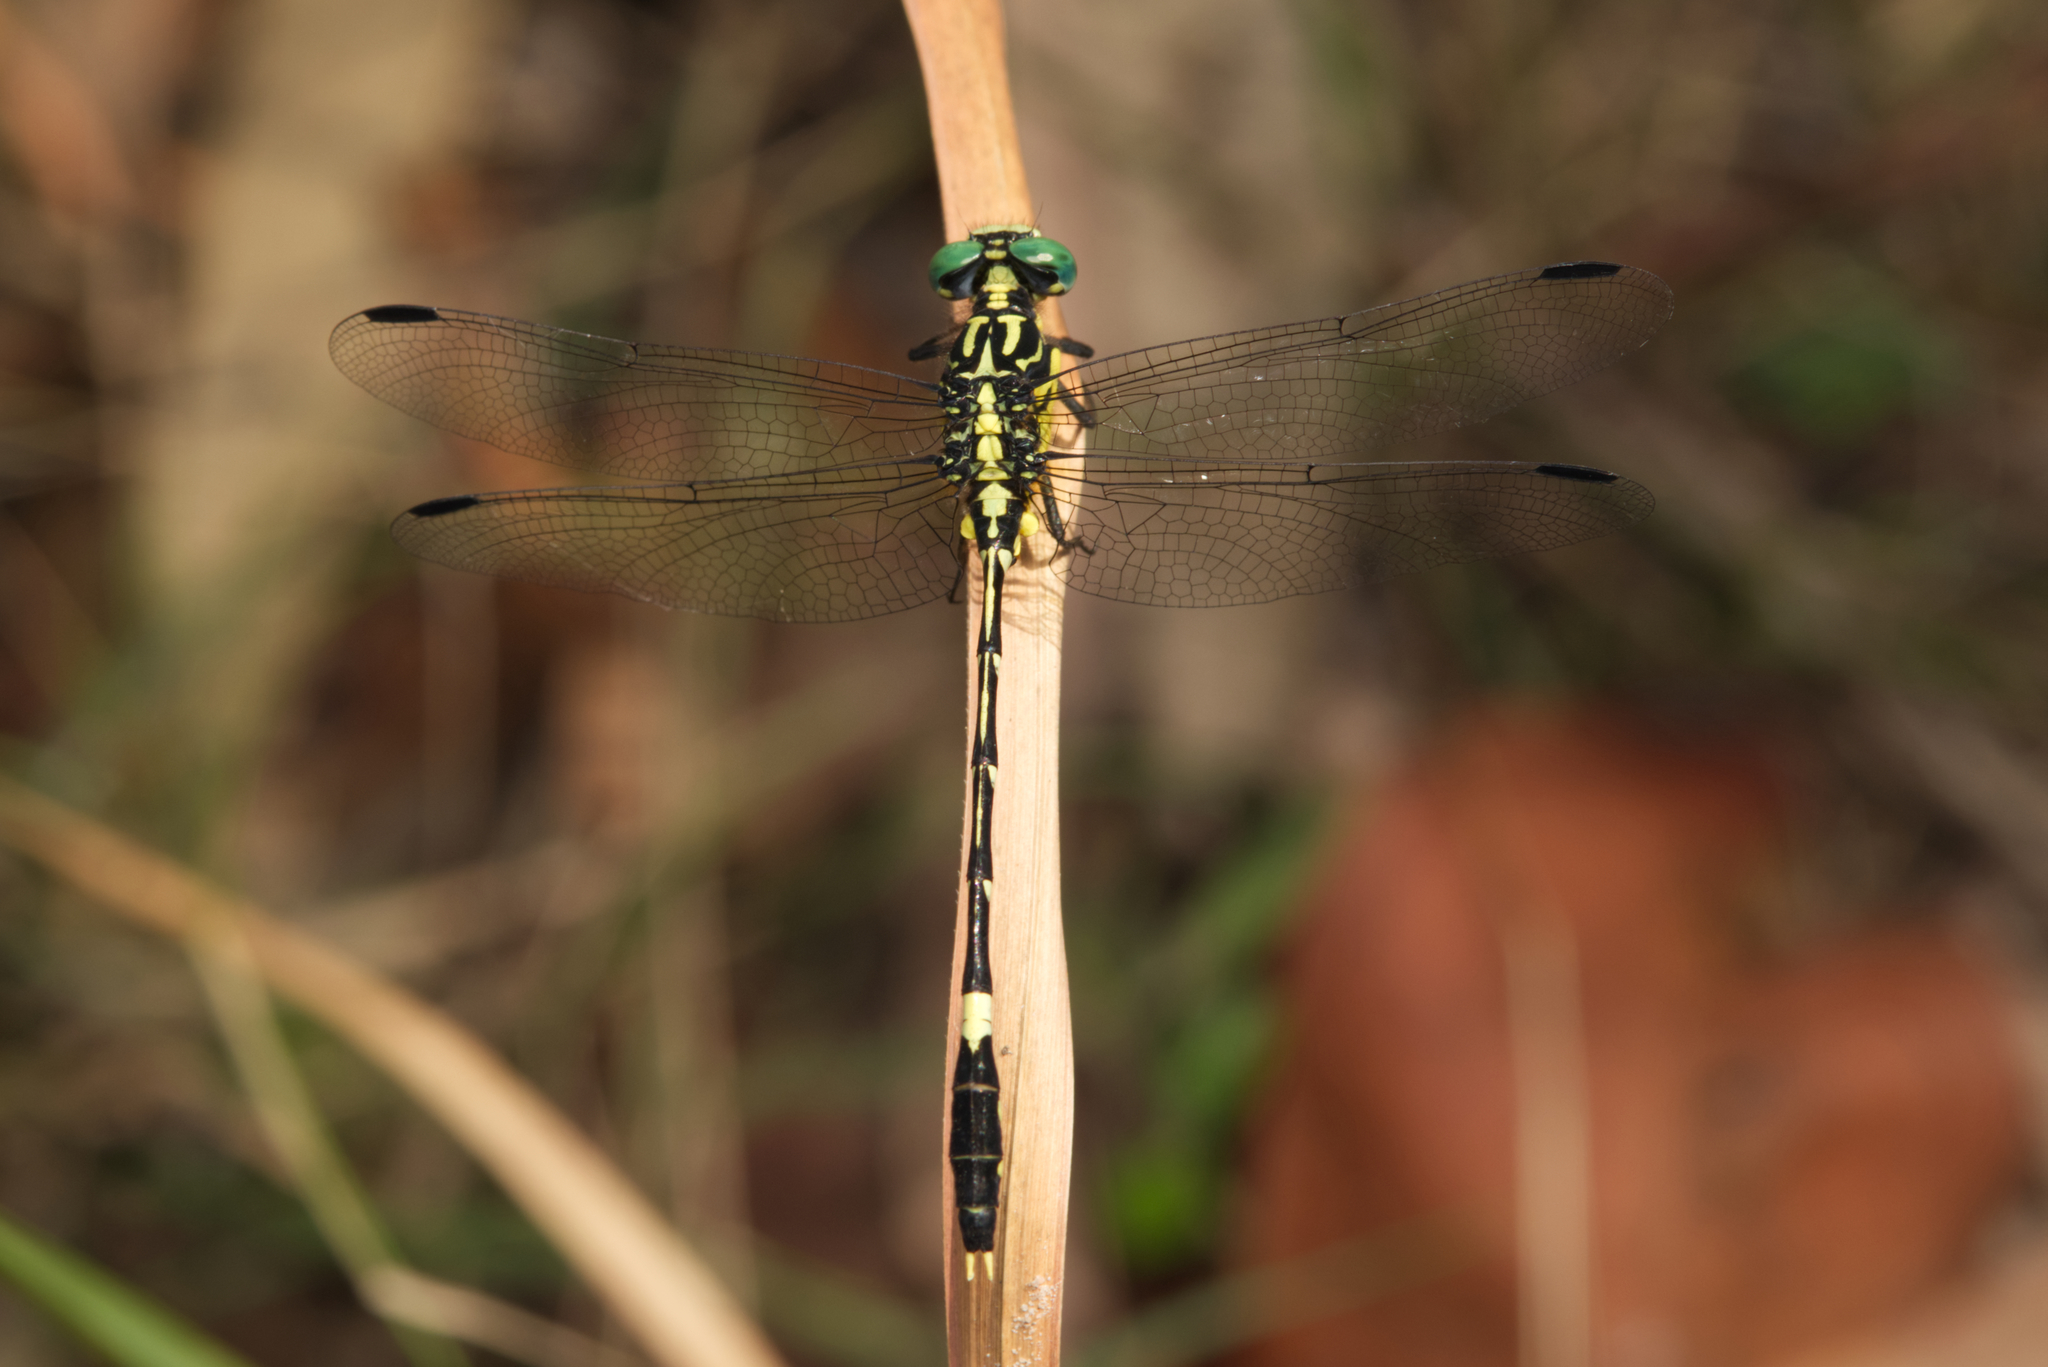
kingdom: Animalia
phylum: Arthropoda
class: Insecta
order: Odonata
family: Gomphidae
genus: Austrogomphus
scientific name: Austrogomphus amphiclitus
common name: Pale hunter
